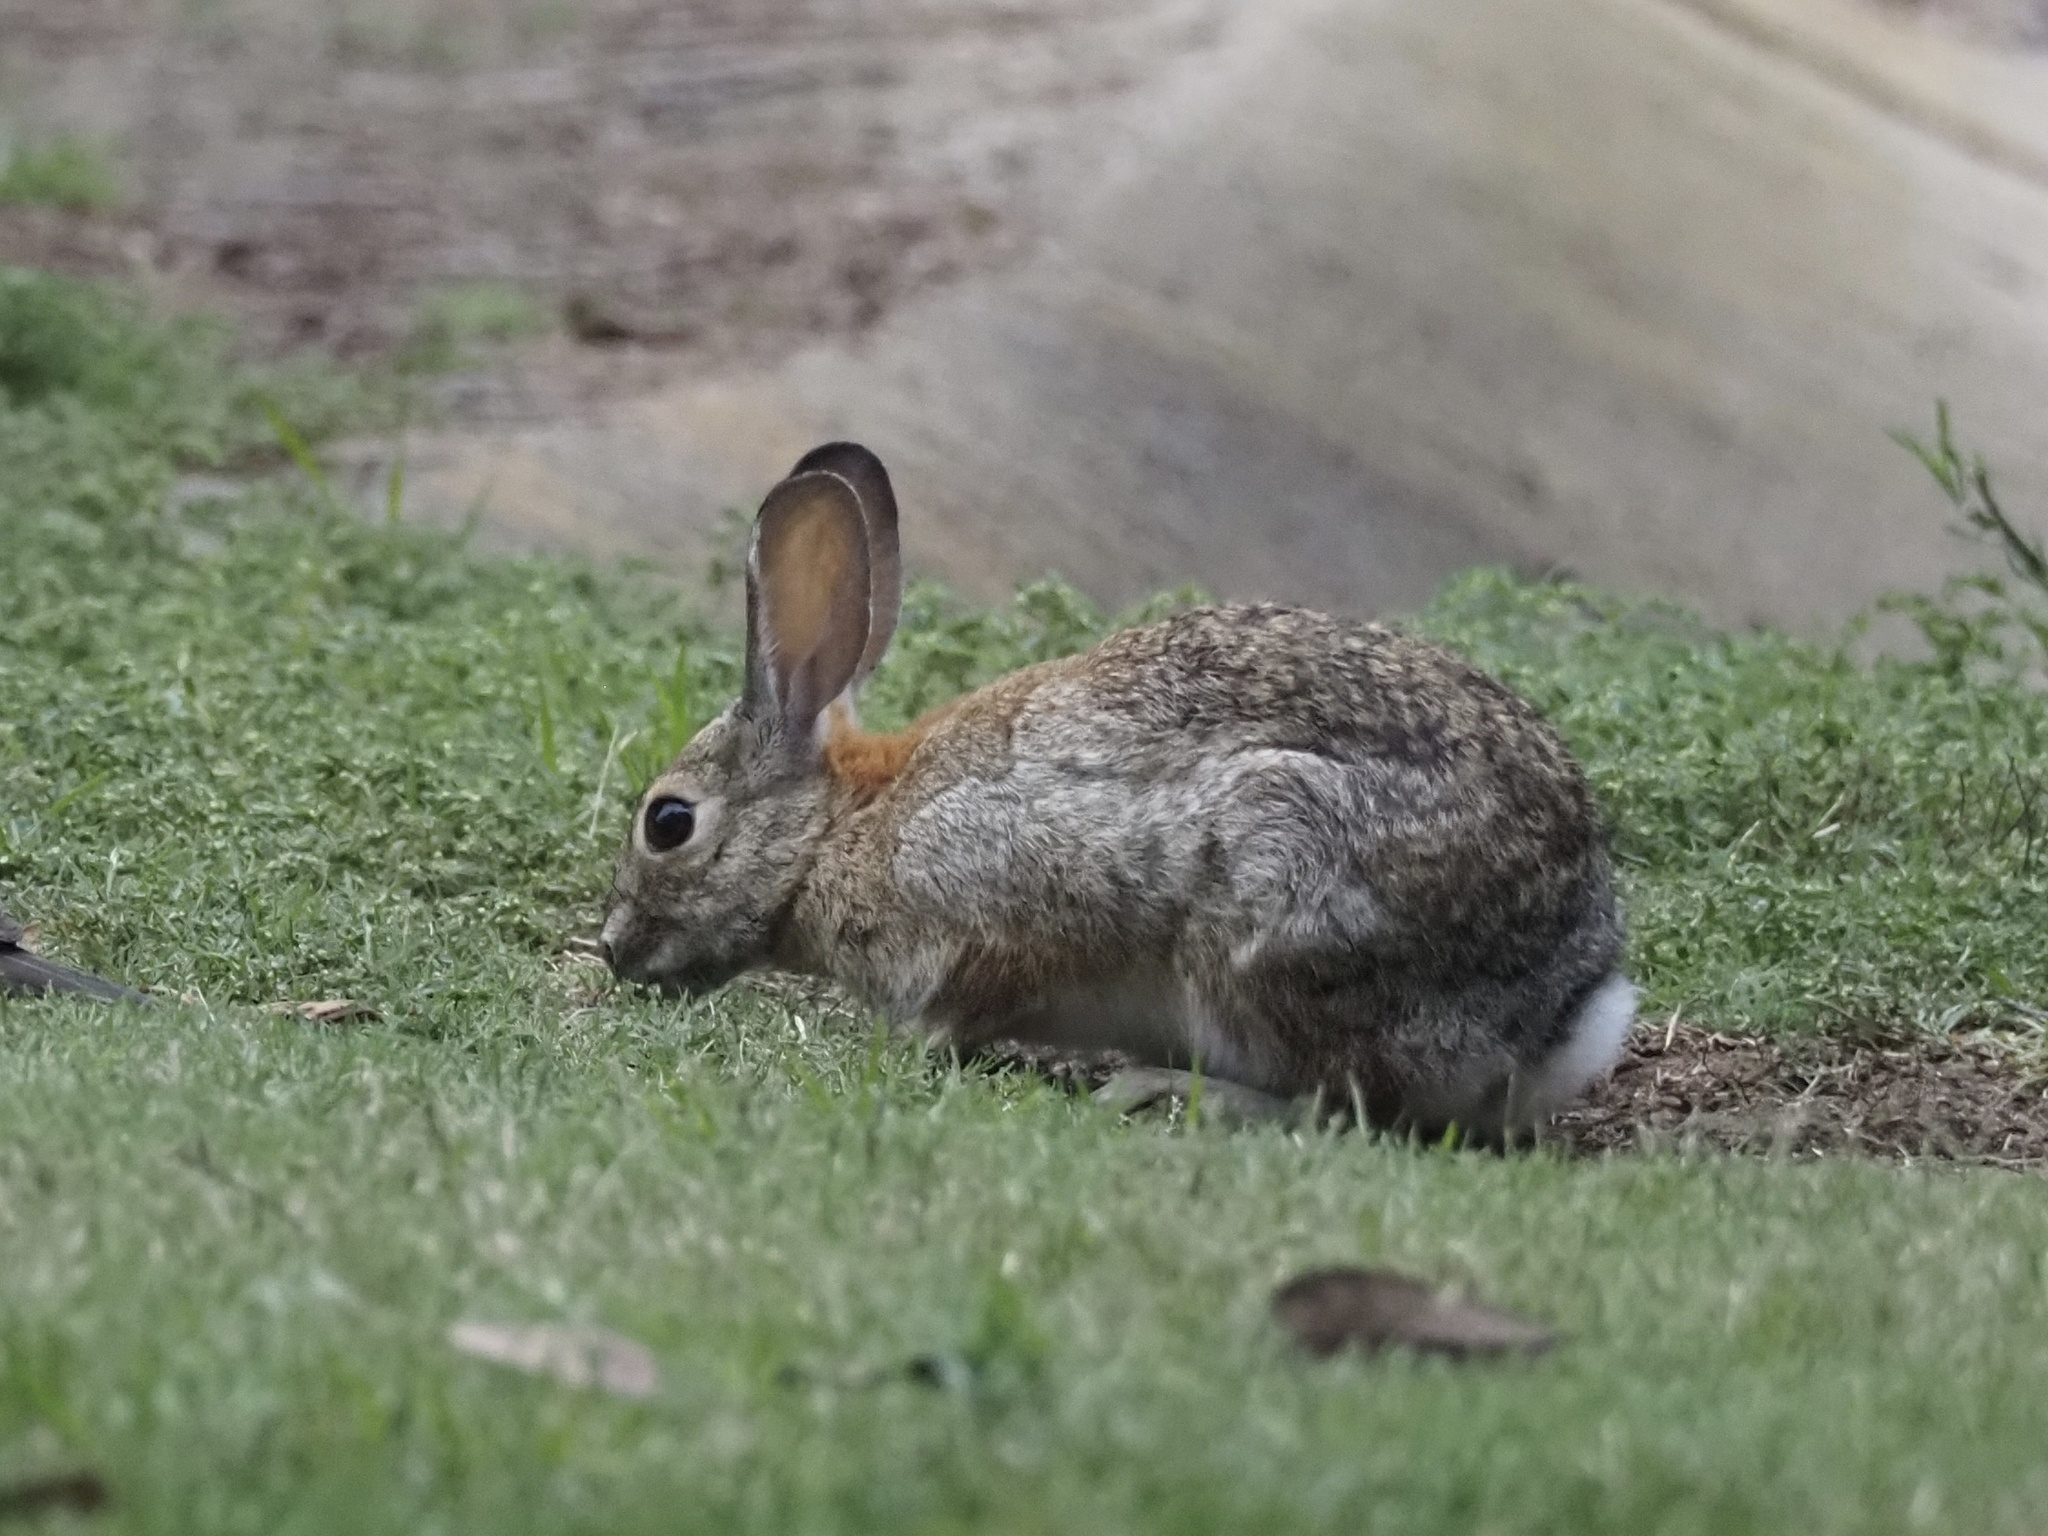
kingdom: Animalia
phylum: Chordata
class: Mammalia
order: Lagomorpha
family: Leporidae
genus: Sylvilagus
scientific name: Sylvilagus audubonii
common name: Desert cottontail
